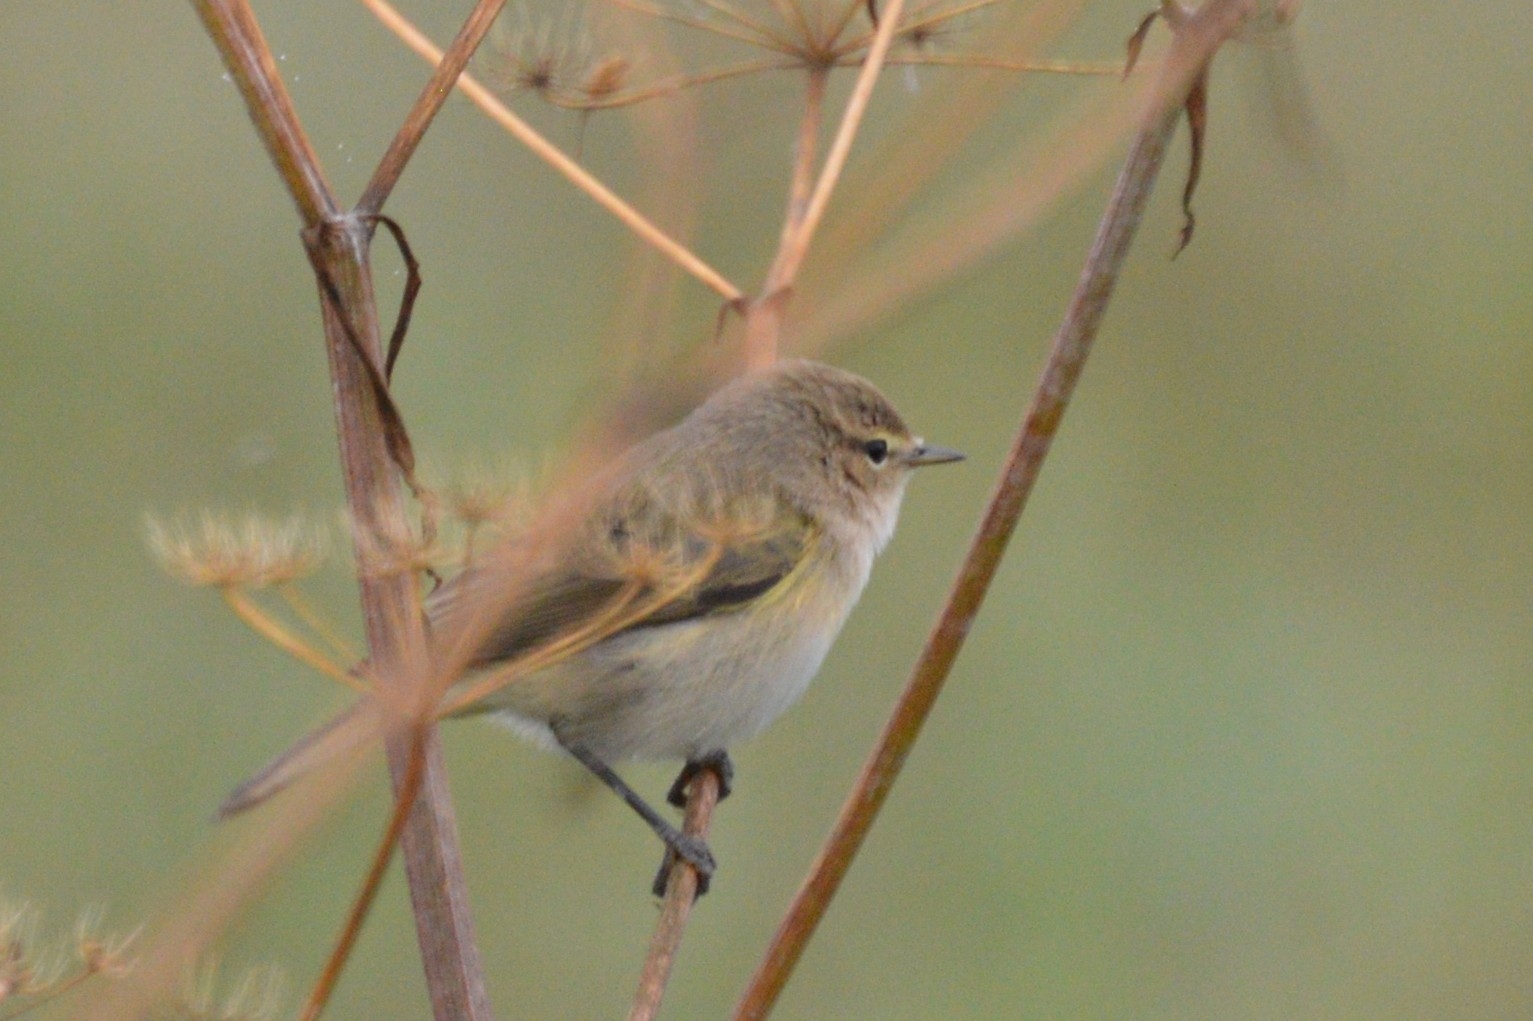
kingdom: Animalia
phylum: Chordata
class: Aves
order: Passeriformes
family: Phylloscopidae
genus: Phylloscopus
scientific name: Phylloscopus collybita
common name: Common chiffchaff
